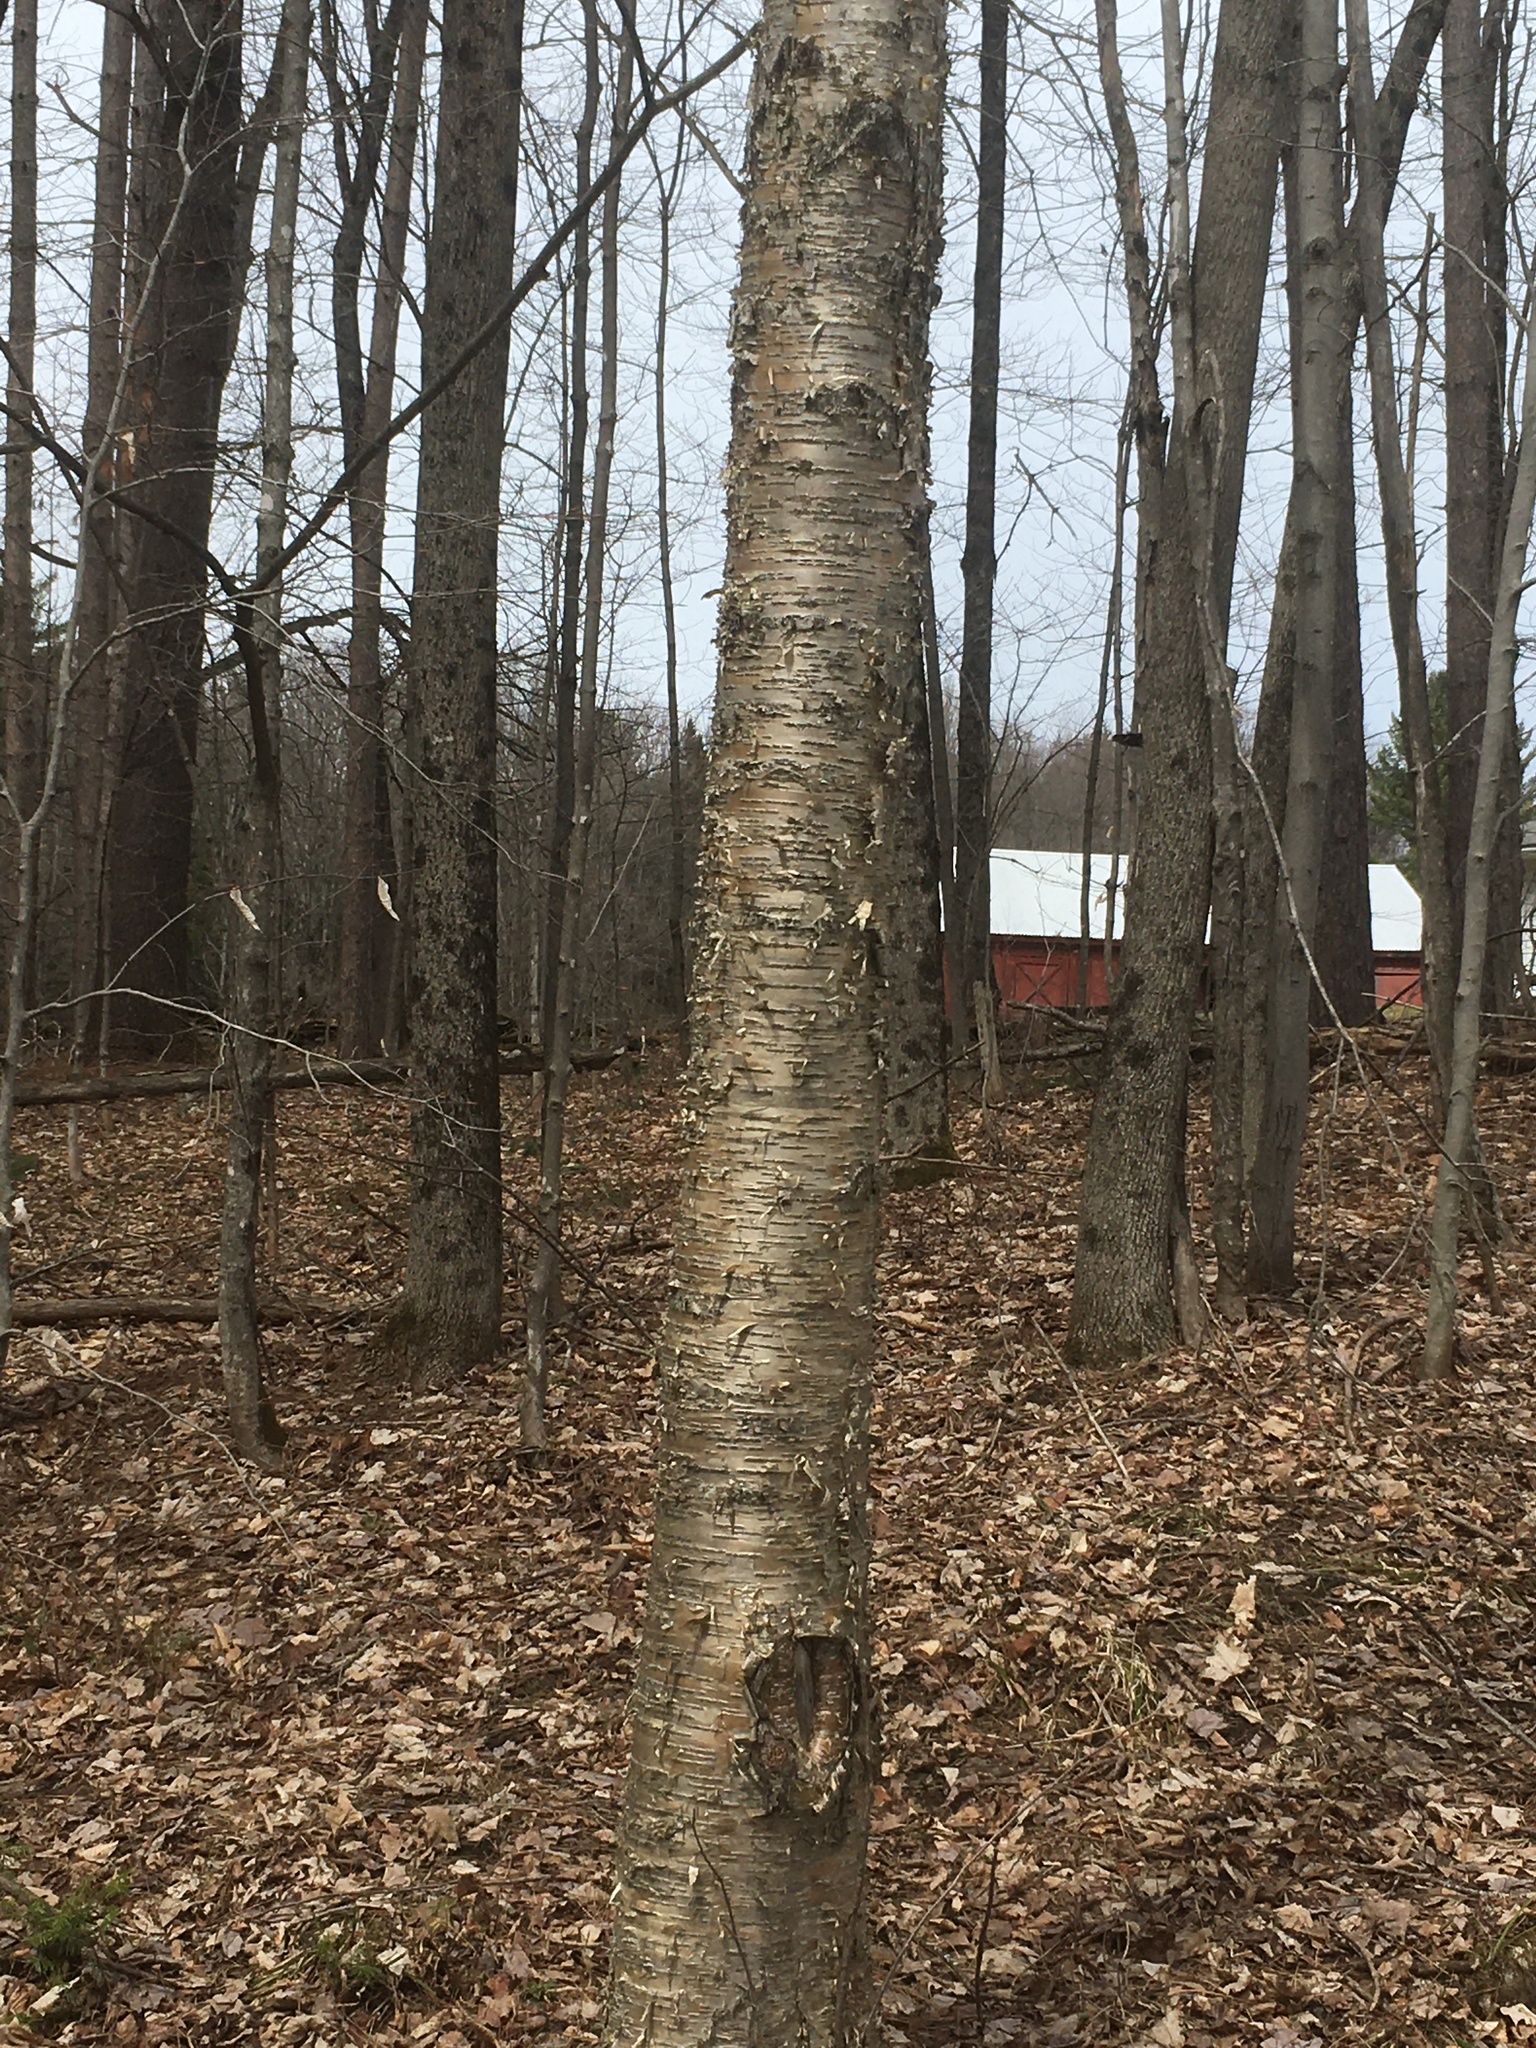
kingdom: Plantae
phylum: Tracheophyta
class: Magnoliopsida
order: Fagales
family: Betulaceae
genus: Betula
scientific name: Betula alleghaniensis
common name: Yellow birch
